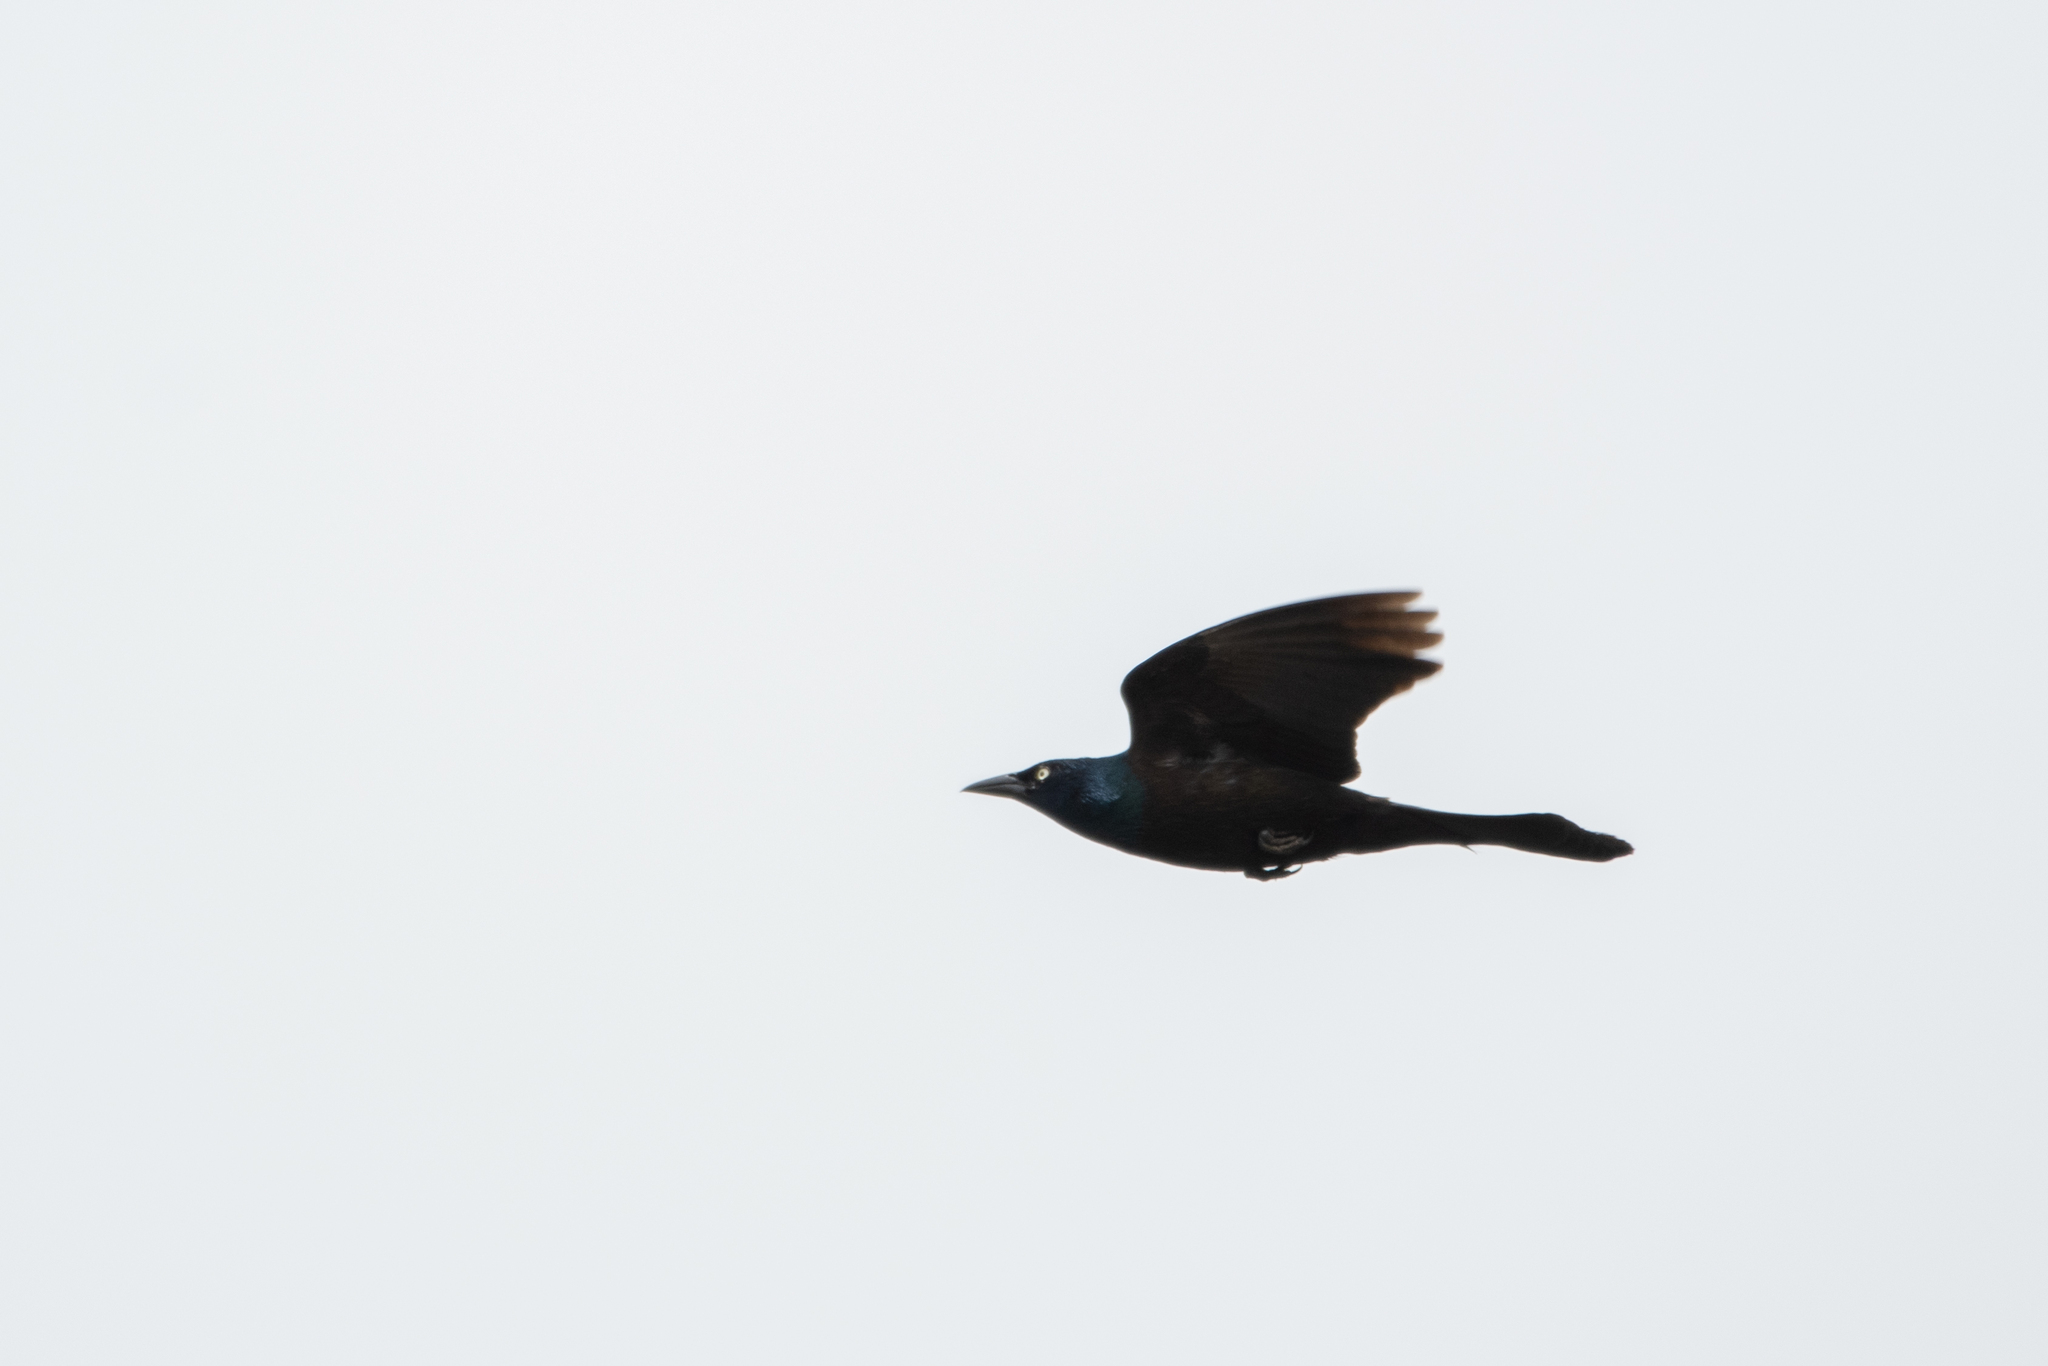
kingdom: Animalia
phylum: Chordata
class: Aves
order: Passeriformes
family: Icteridae
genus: Quiscalus
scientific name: Quiscalus quiscula
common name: Common grackle
